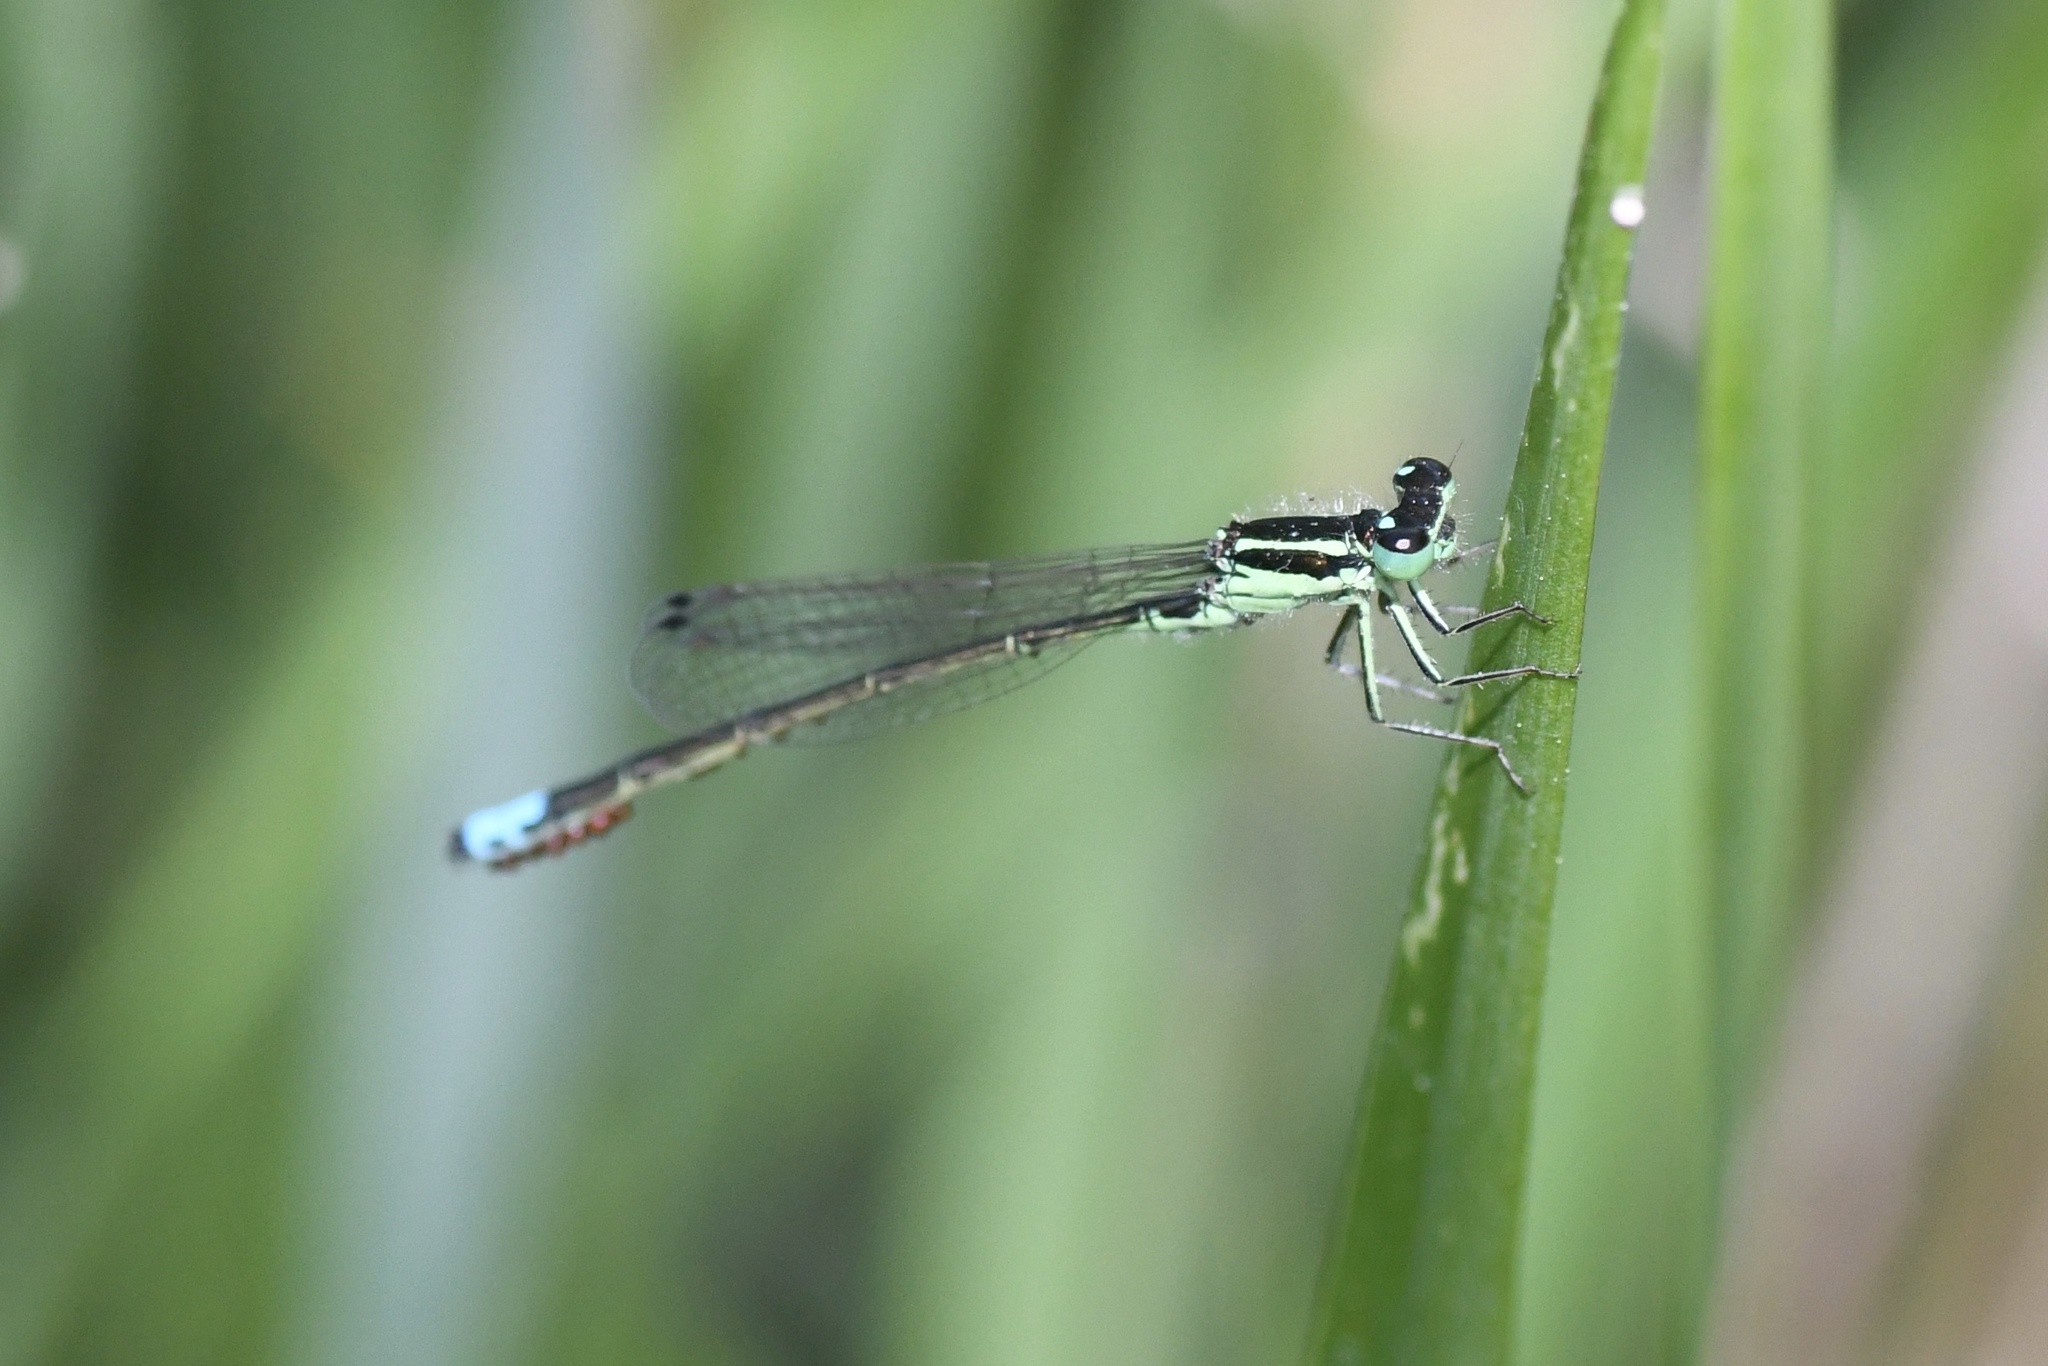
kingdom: Animalia
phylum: Arthropoda
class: Insecta
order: Odonata
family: Coenagrionidae
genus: Ischnura
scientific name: Ischnura verticalis
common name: Eastern forktail
